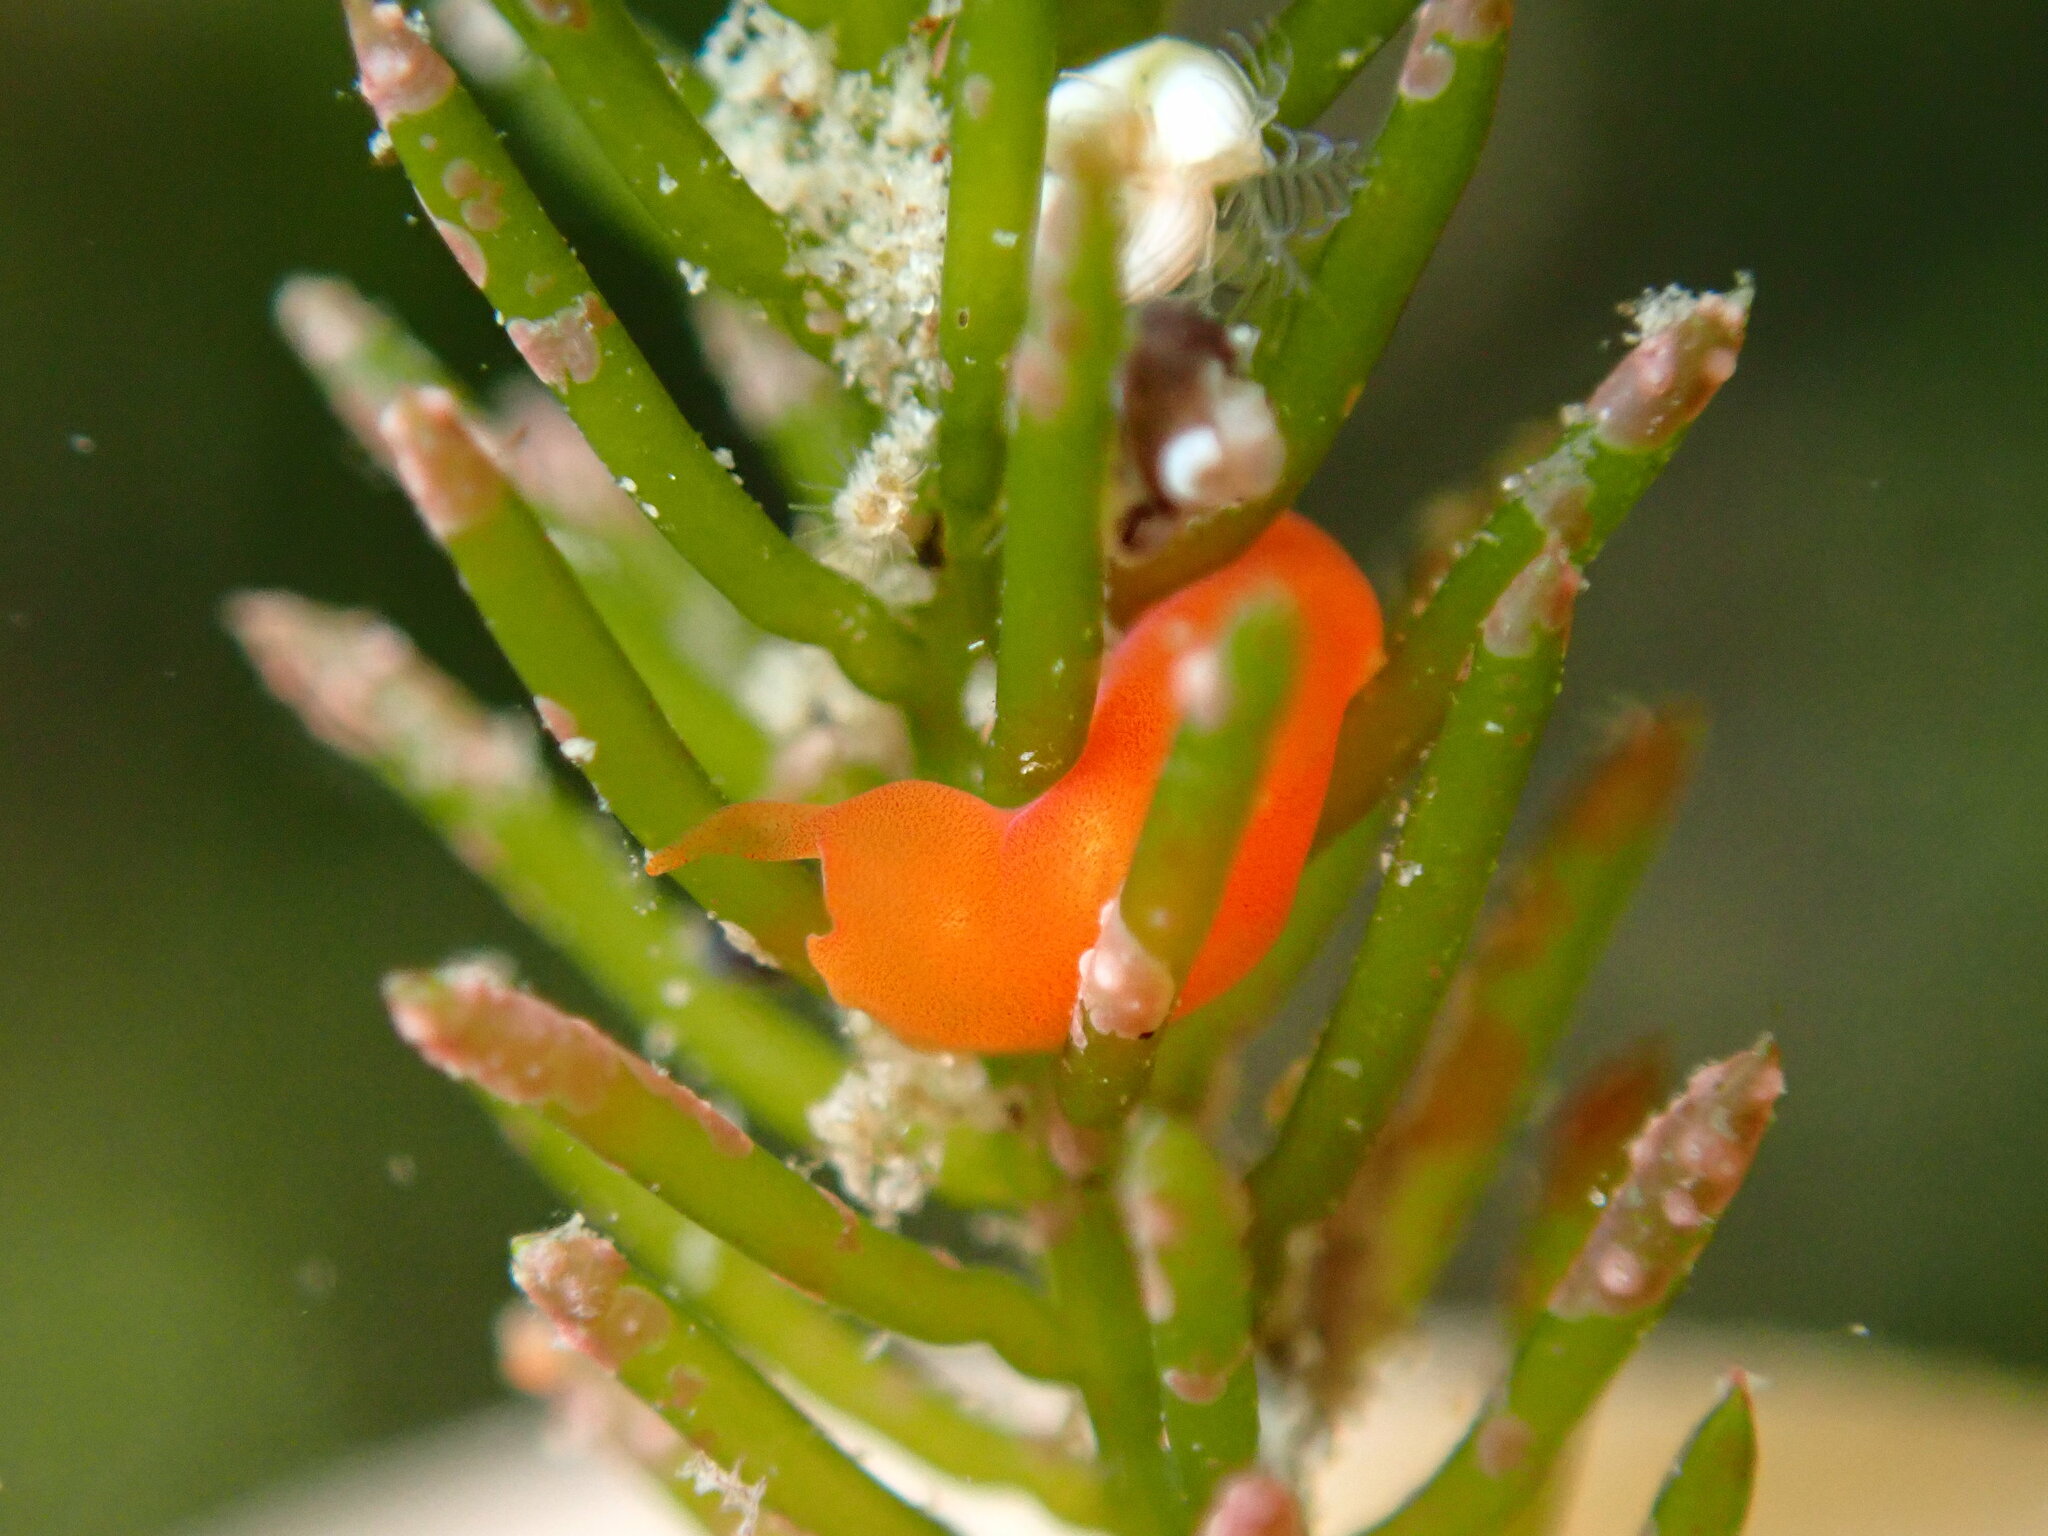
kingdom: Animalia
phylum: Xenacoelomorpha
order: Acoela
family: Convolutidae
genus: Polychoerus
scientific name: Polychoerus gordoni
